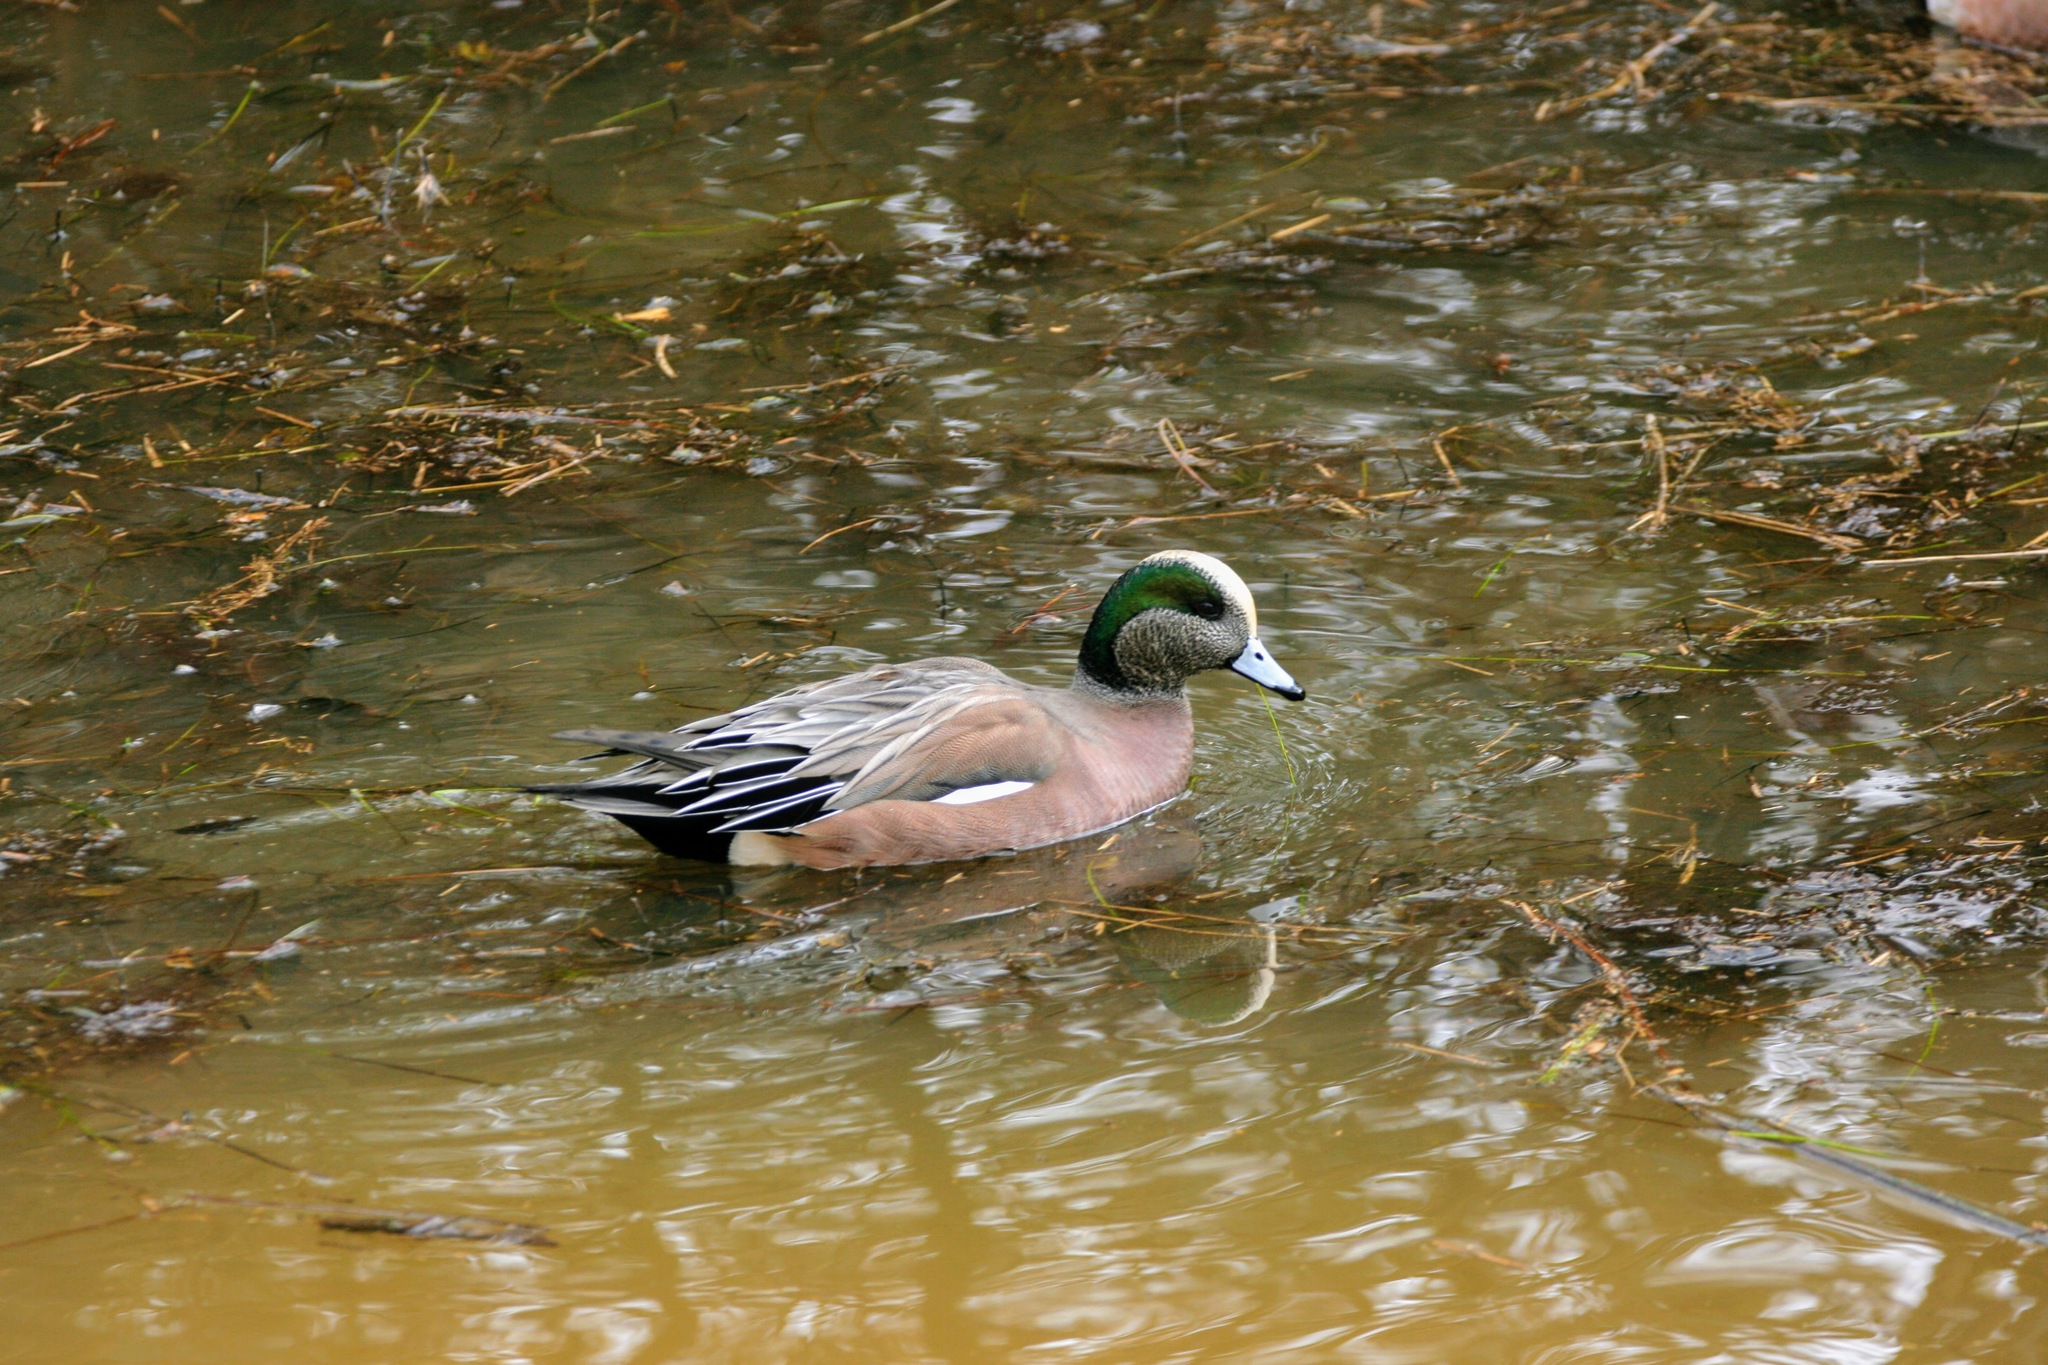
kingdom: Animalia
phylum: Chordata
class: Aves
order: Anseriformes
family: Anatidae
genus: Mareca
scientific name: Mareca americana
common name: American wigeon
